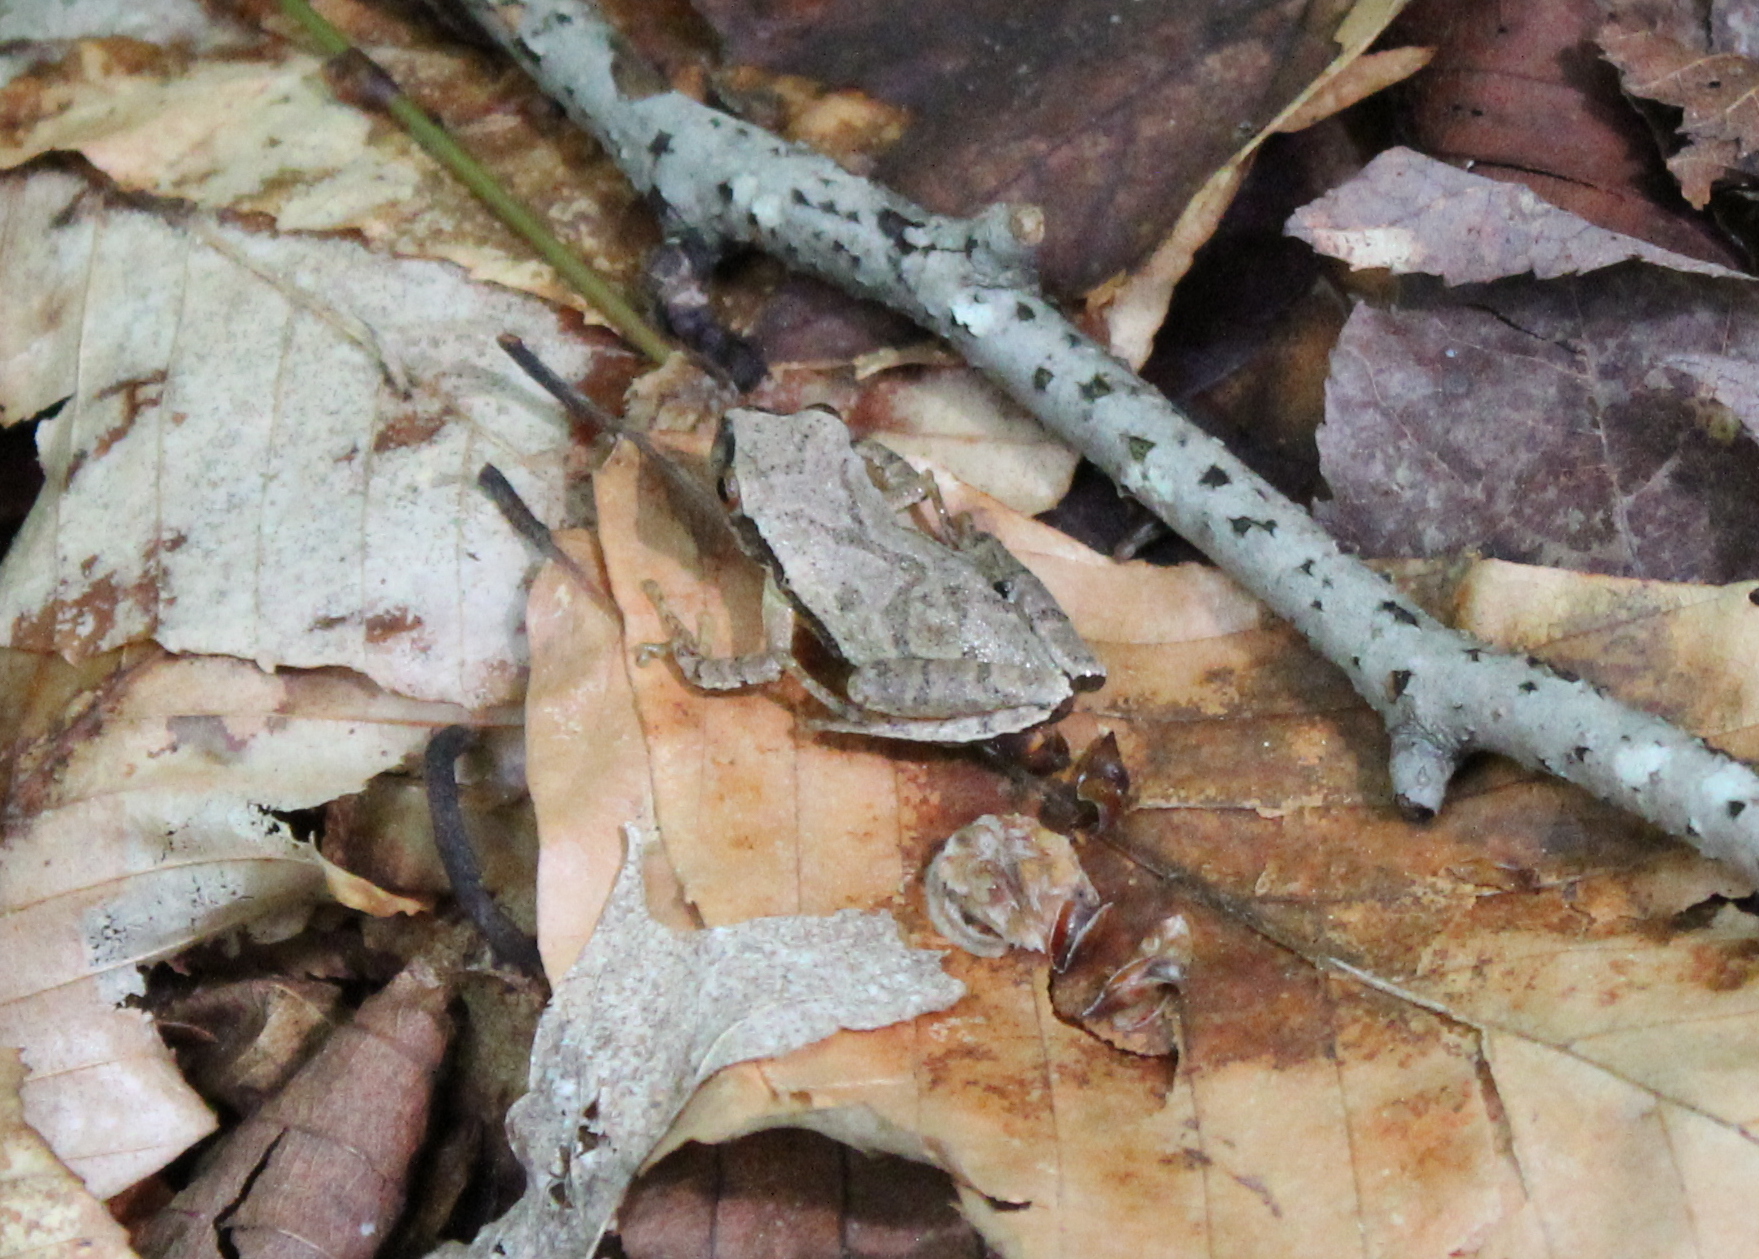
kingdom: Animalia
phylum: Chordata
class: Amphibia
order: Anura
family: Hylidae
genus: Pseudacris
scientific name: Pseudacris crucifer
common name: Spring peeper
